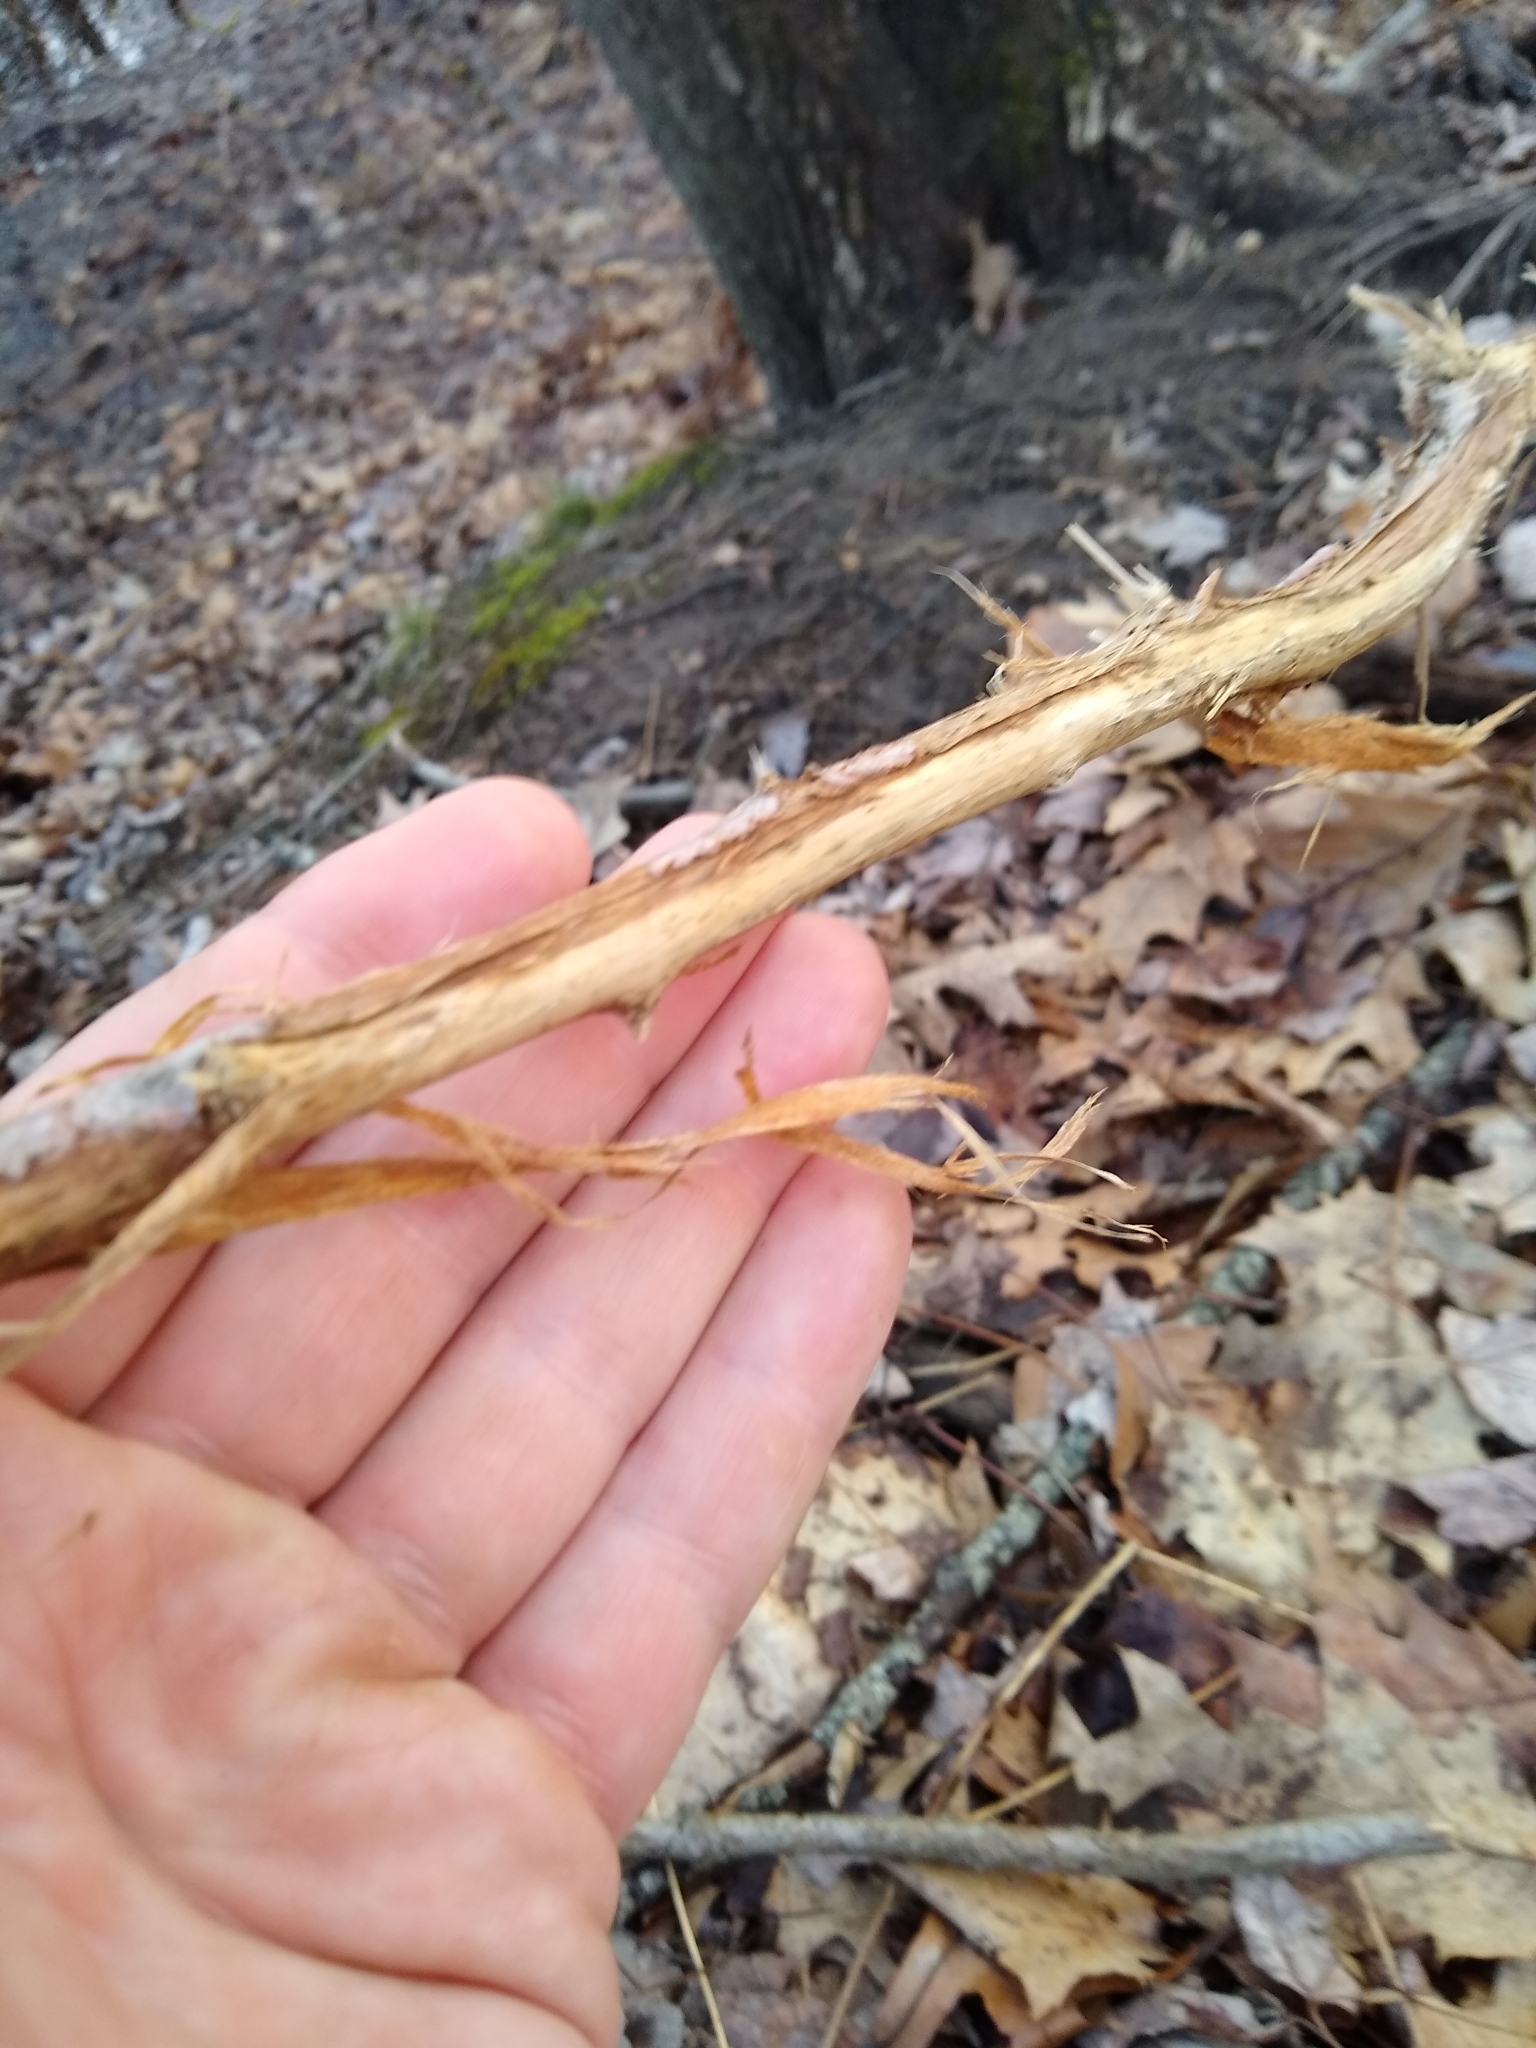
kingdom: Animalia
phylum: Chordata
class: Mammalia
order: Artiodactyla
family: Cervidae
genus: Odocoileus
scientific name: Odocoileus virginianus
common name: White-tailed deer
